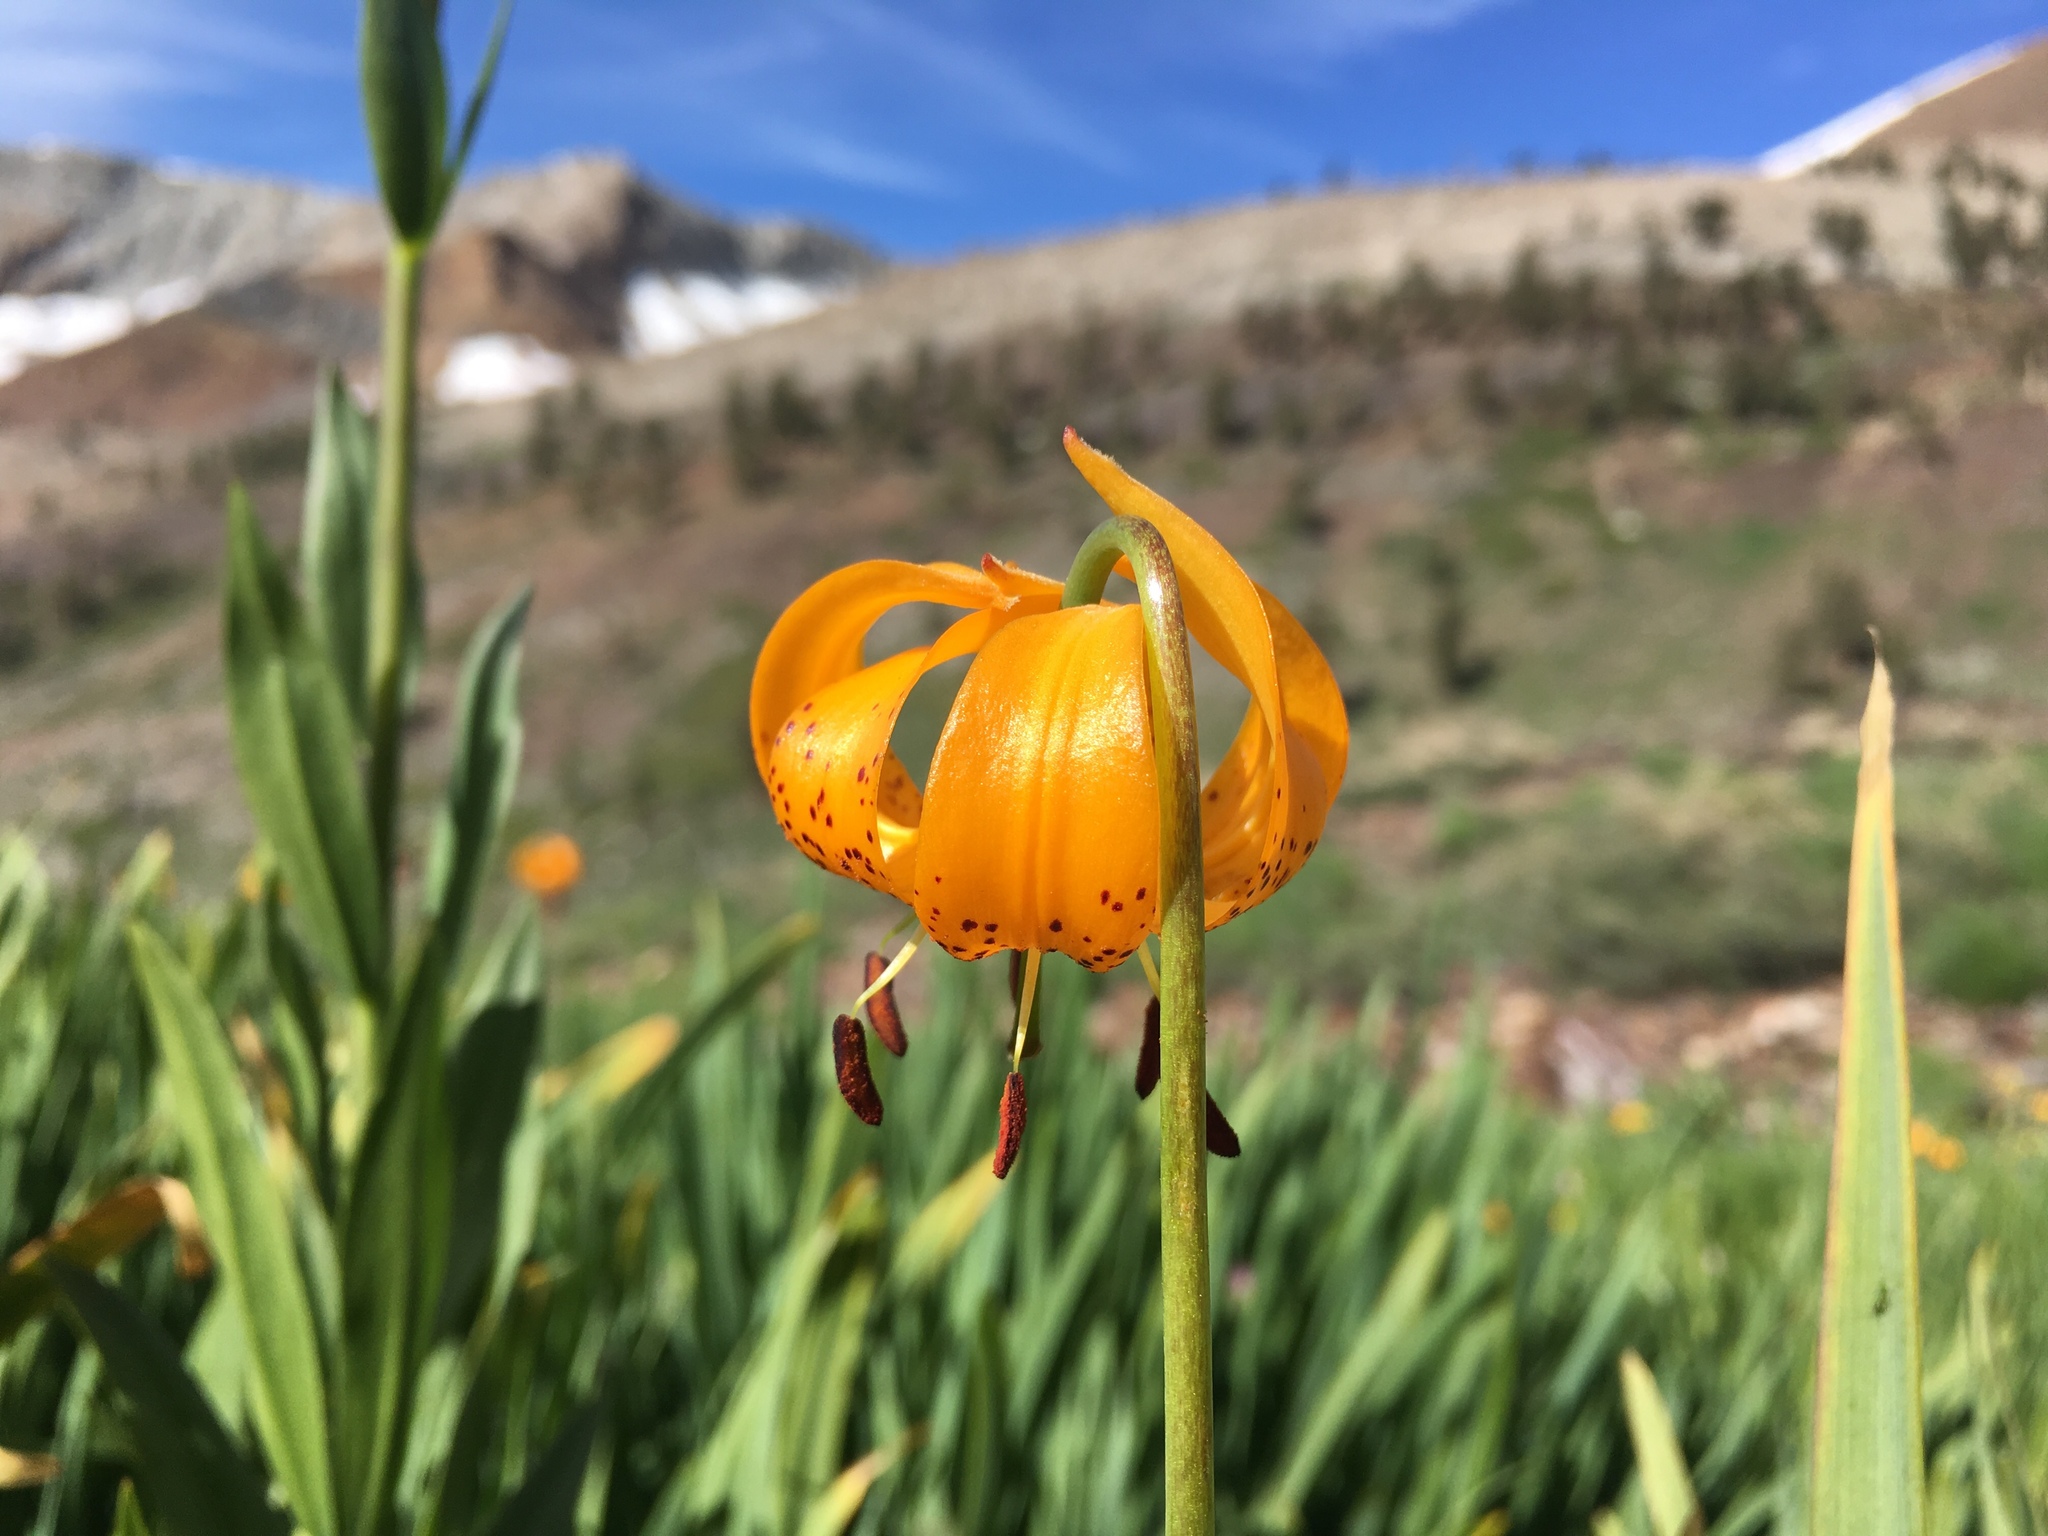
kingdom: Plantae
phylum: Tracheophyta
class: Liliopsida
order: Liliales
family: Liliaceae
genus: Lilium
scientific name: Lilium kelleyanum
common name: Kelley's lily
